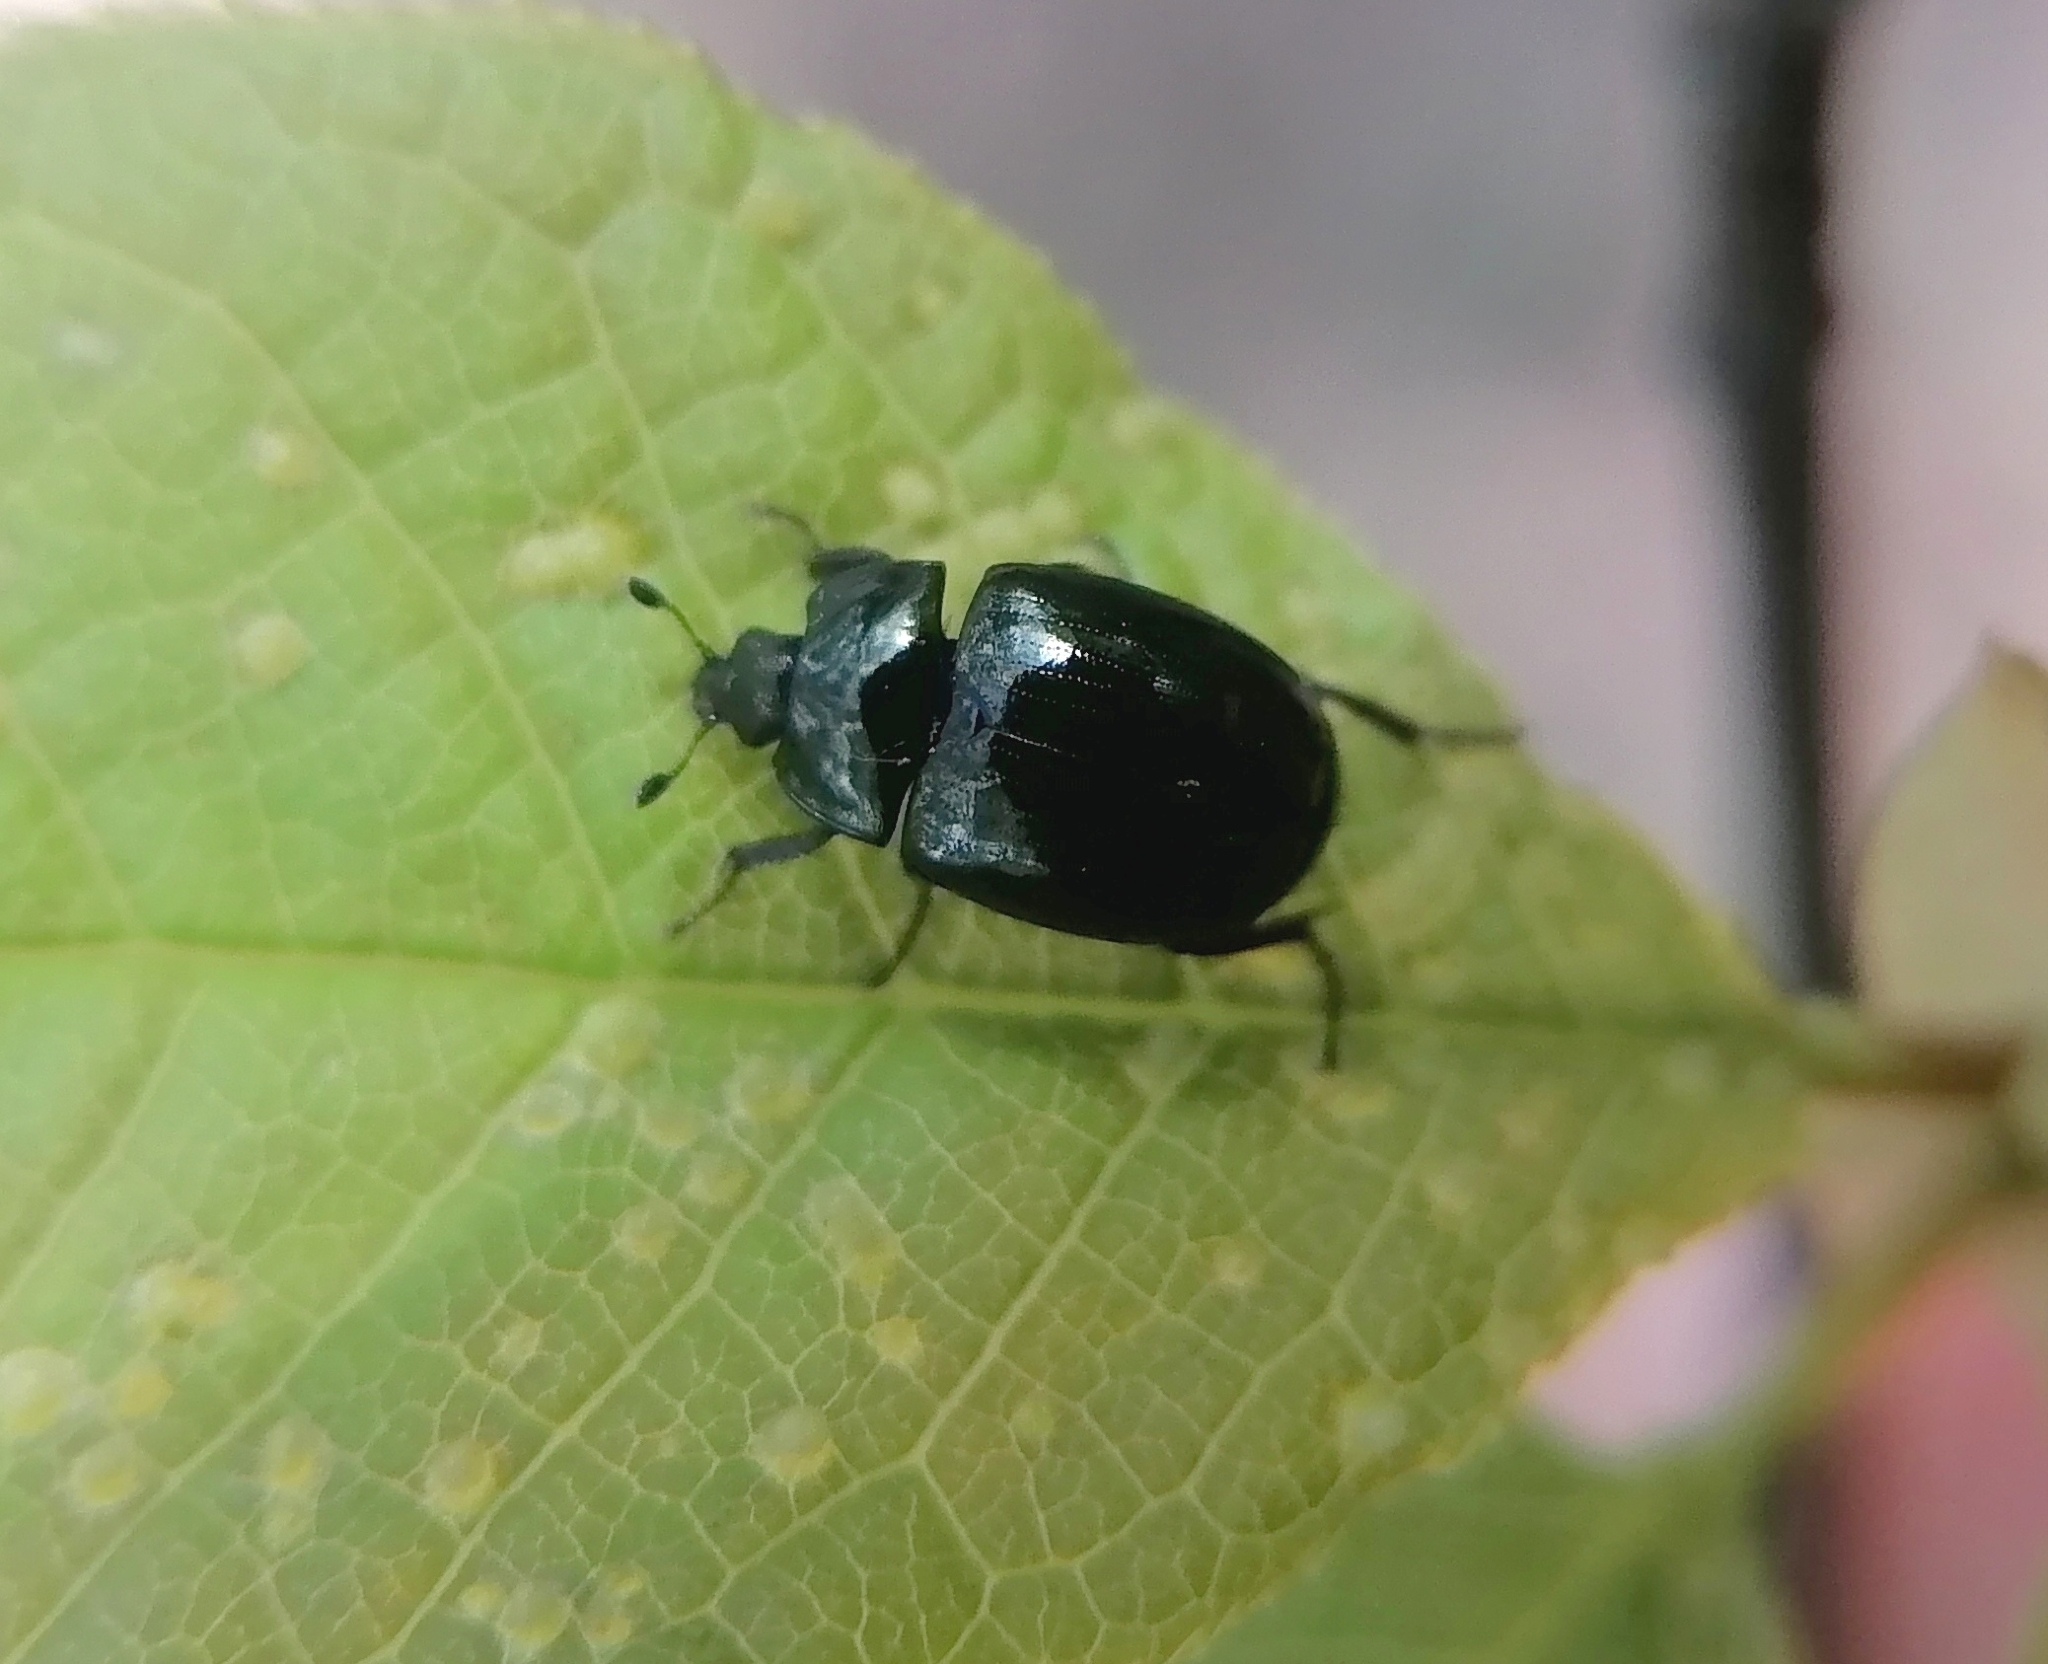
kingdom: Animalia
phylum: Arthropoda
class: Insecta
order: Coleoptera
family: Sphaeritidae
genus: Sphaerites
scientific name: Sphaerites glabratus
